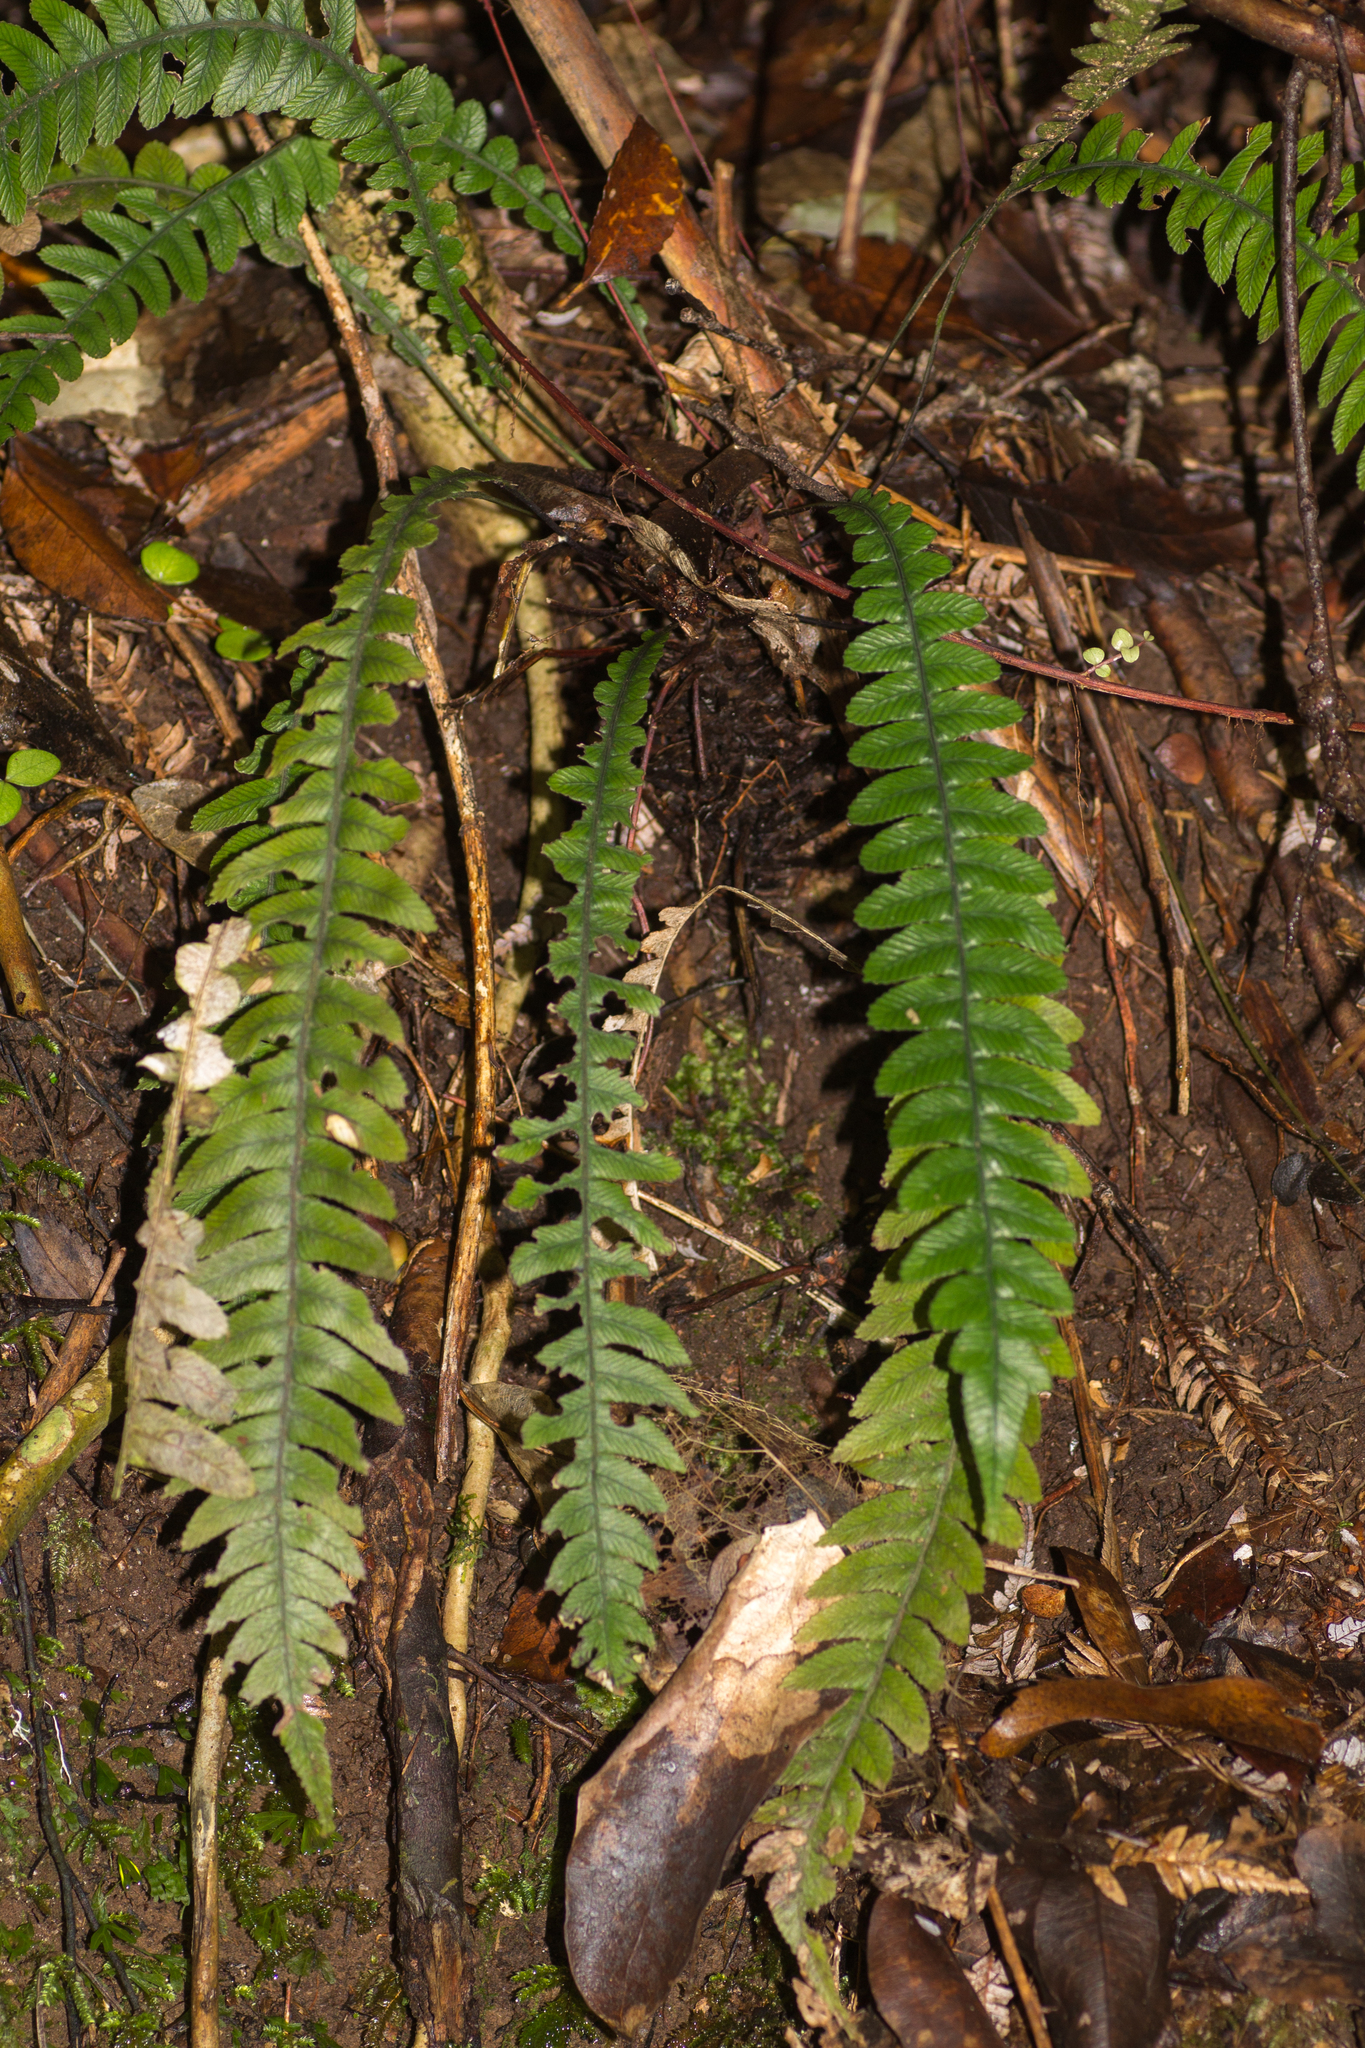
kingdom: Plantae
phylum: Tracheophyta
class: Polypodiopsida
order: Polypodiales
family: Blechnaceae
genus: Austroblechnum
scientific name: Austroblechnum lanceolatum
